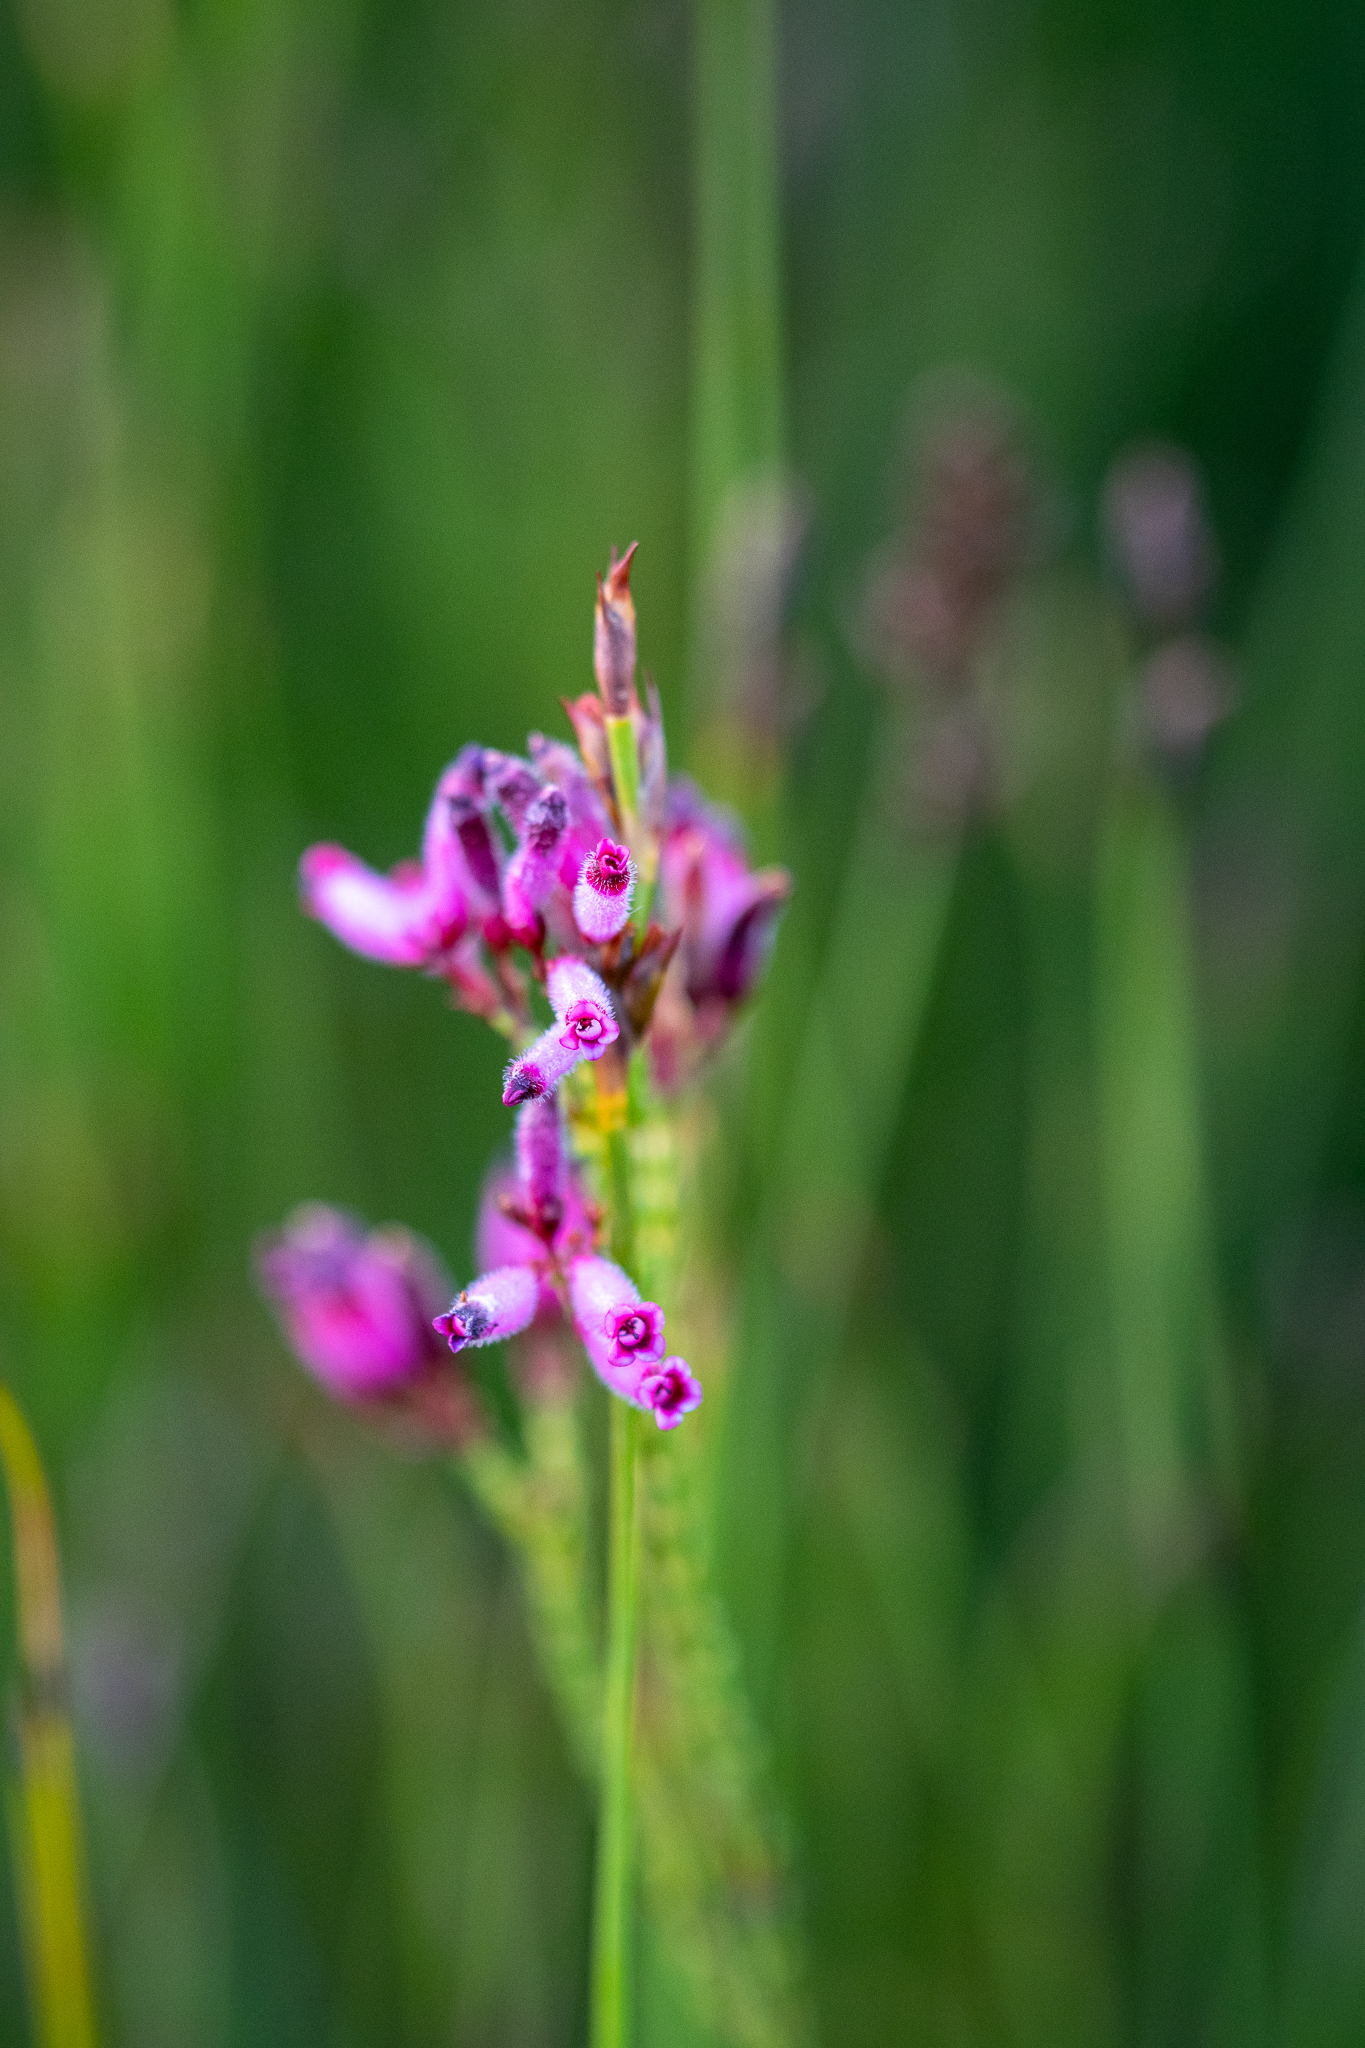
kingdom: Plantae
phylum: Tracheophyta
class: Magnoliopsida
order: Ericales
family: Ericaceae
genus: Erica
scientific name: Erica cristata
